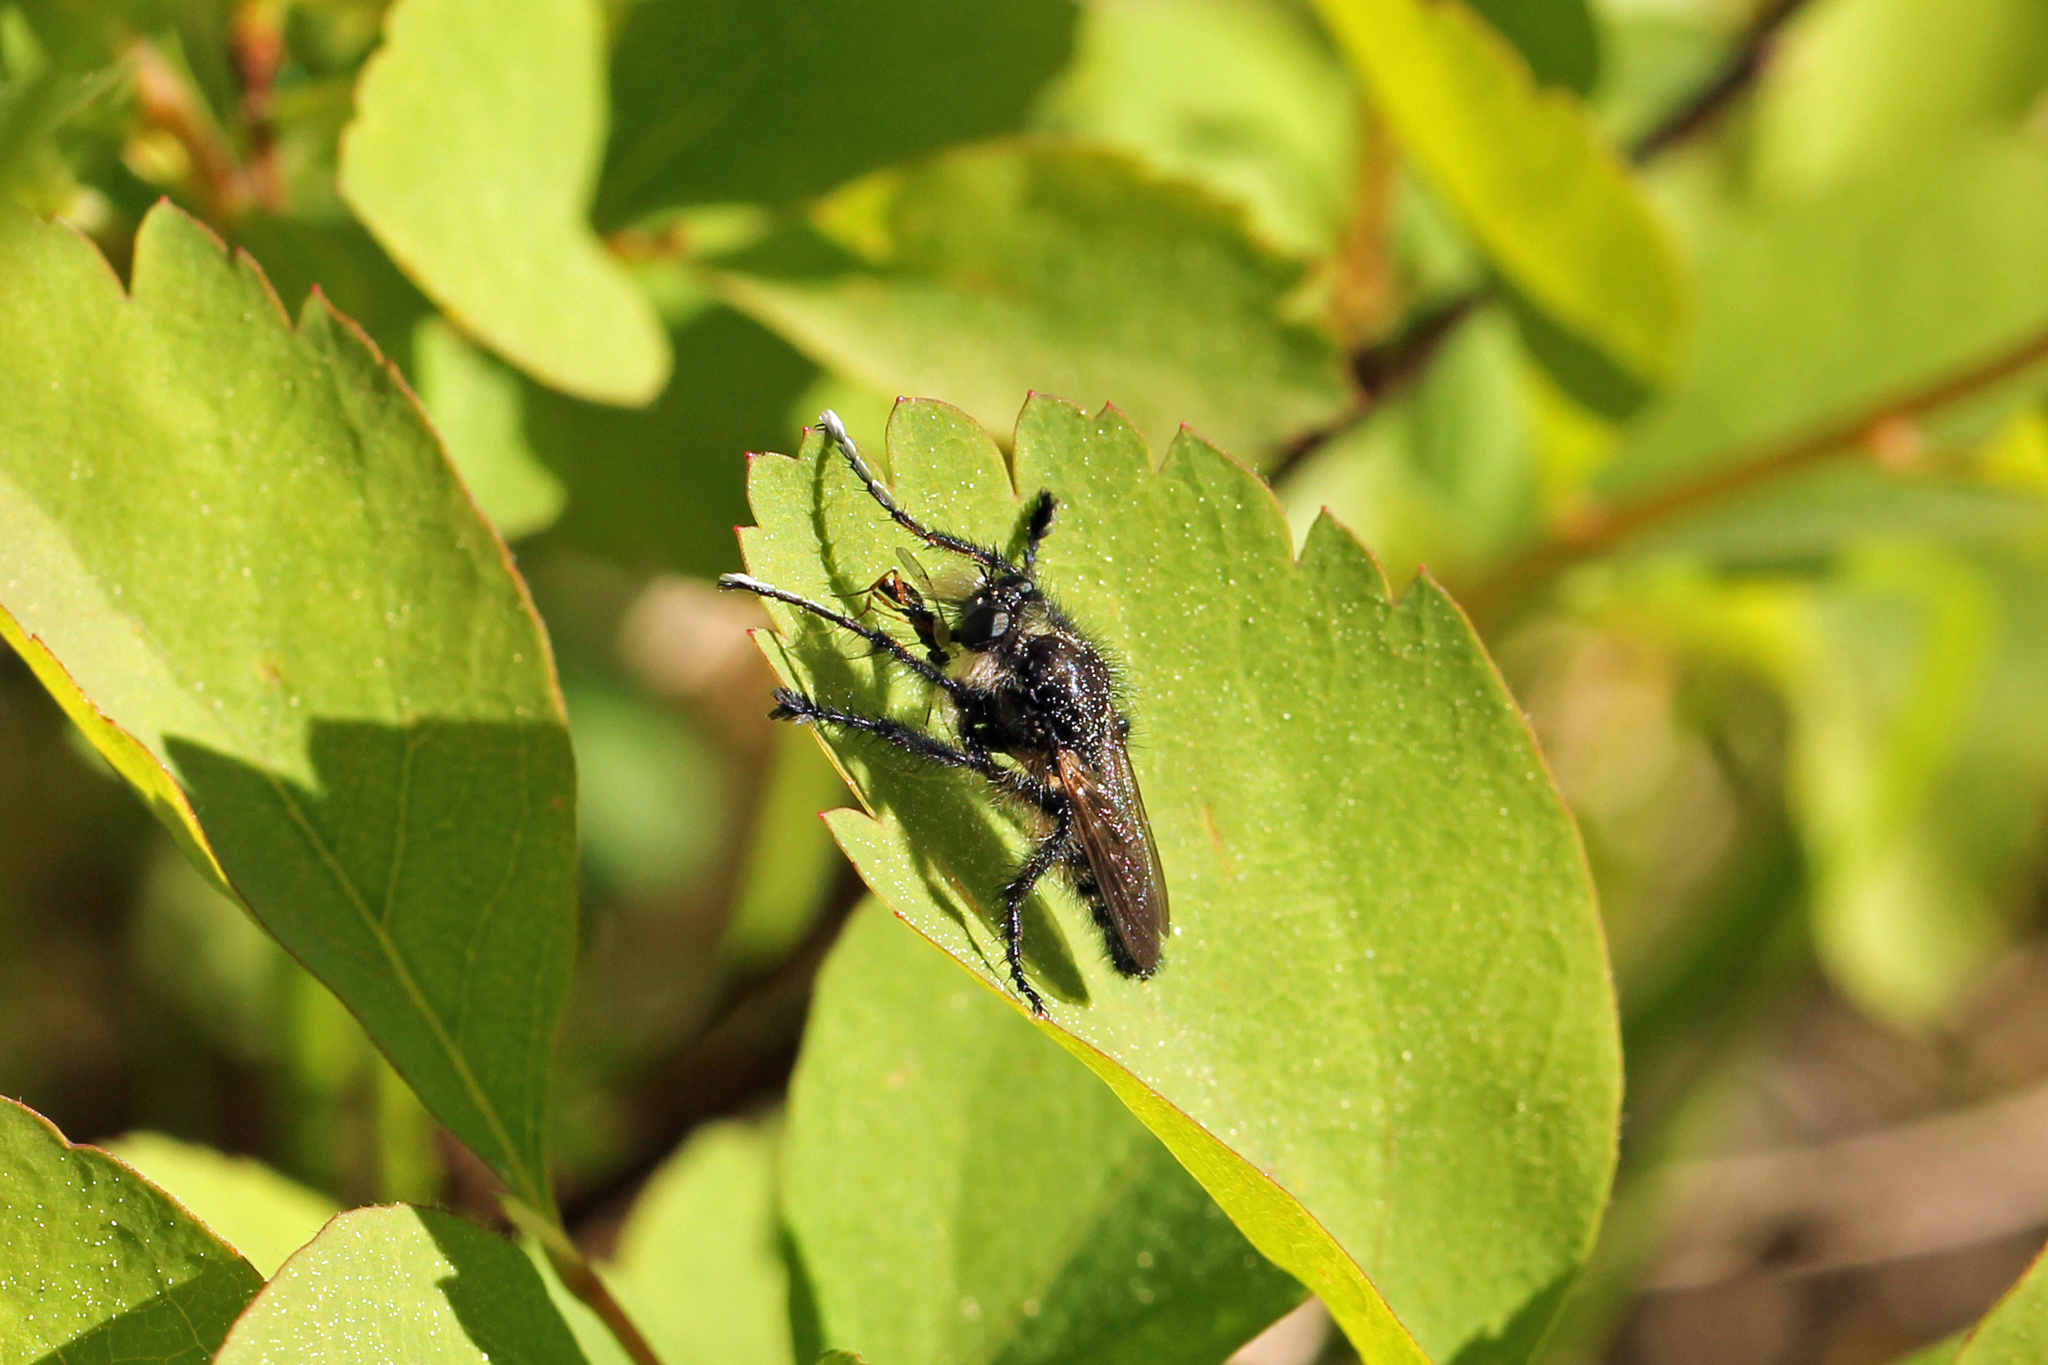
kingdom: Animalia
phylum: Arthropoda
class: Insecta
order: Diptera
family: Asilidae
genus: Cyrtopogon
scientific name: Cyrtopogon willistoni
